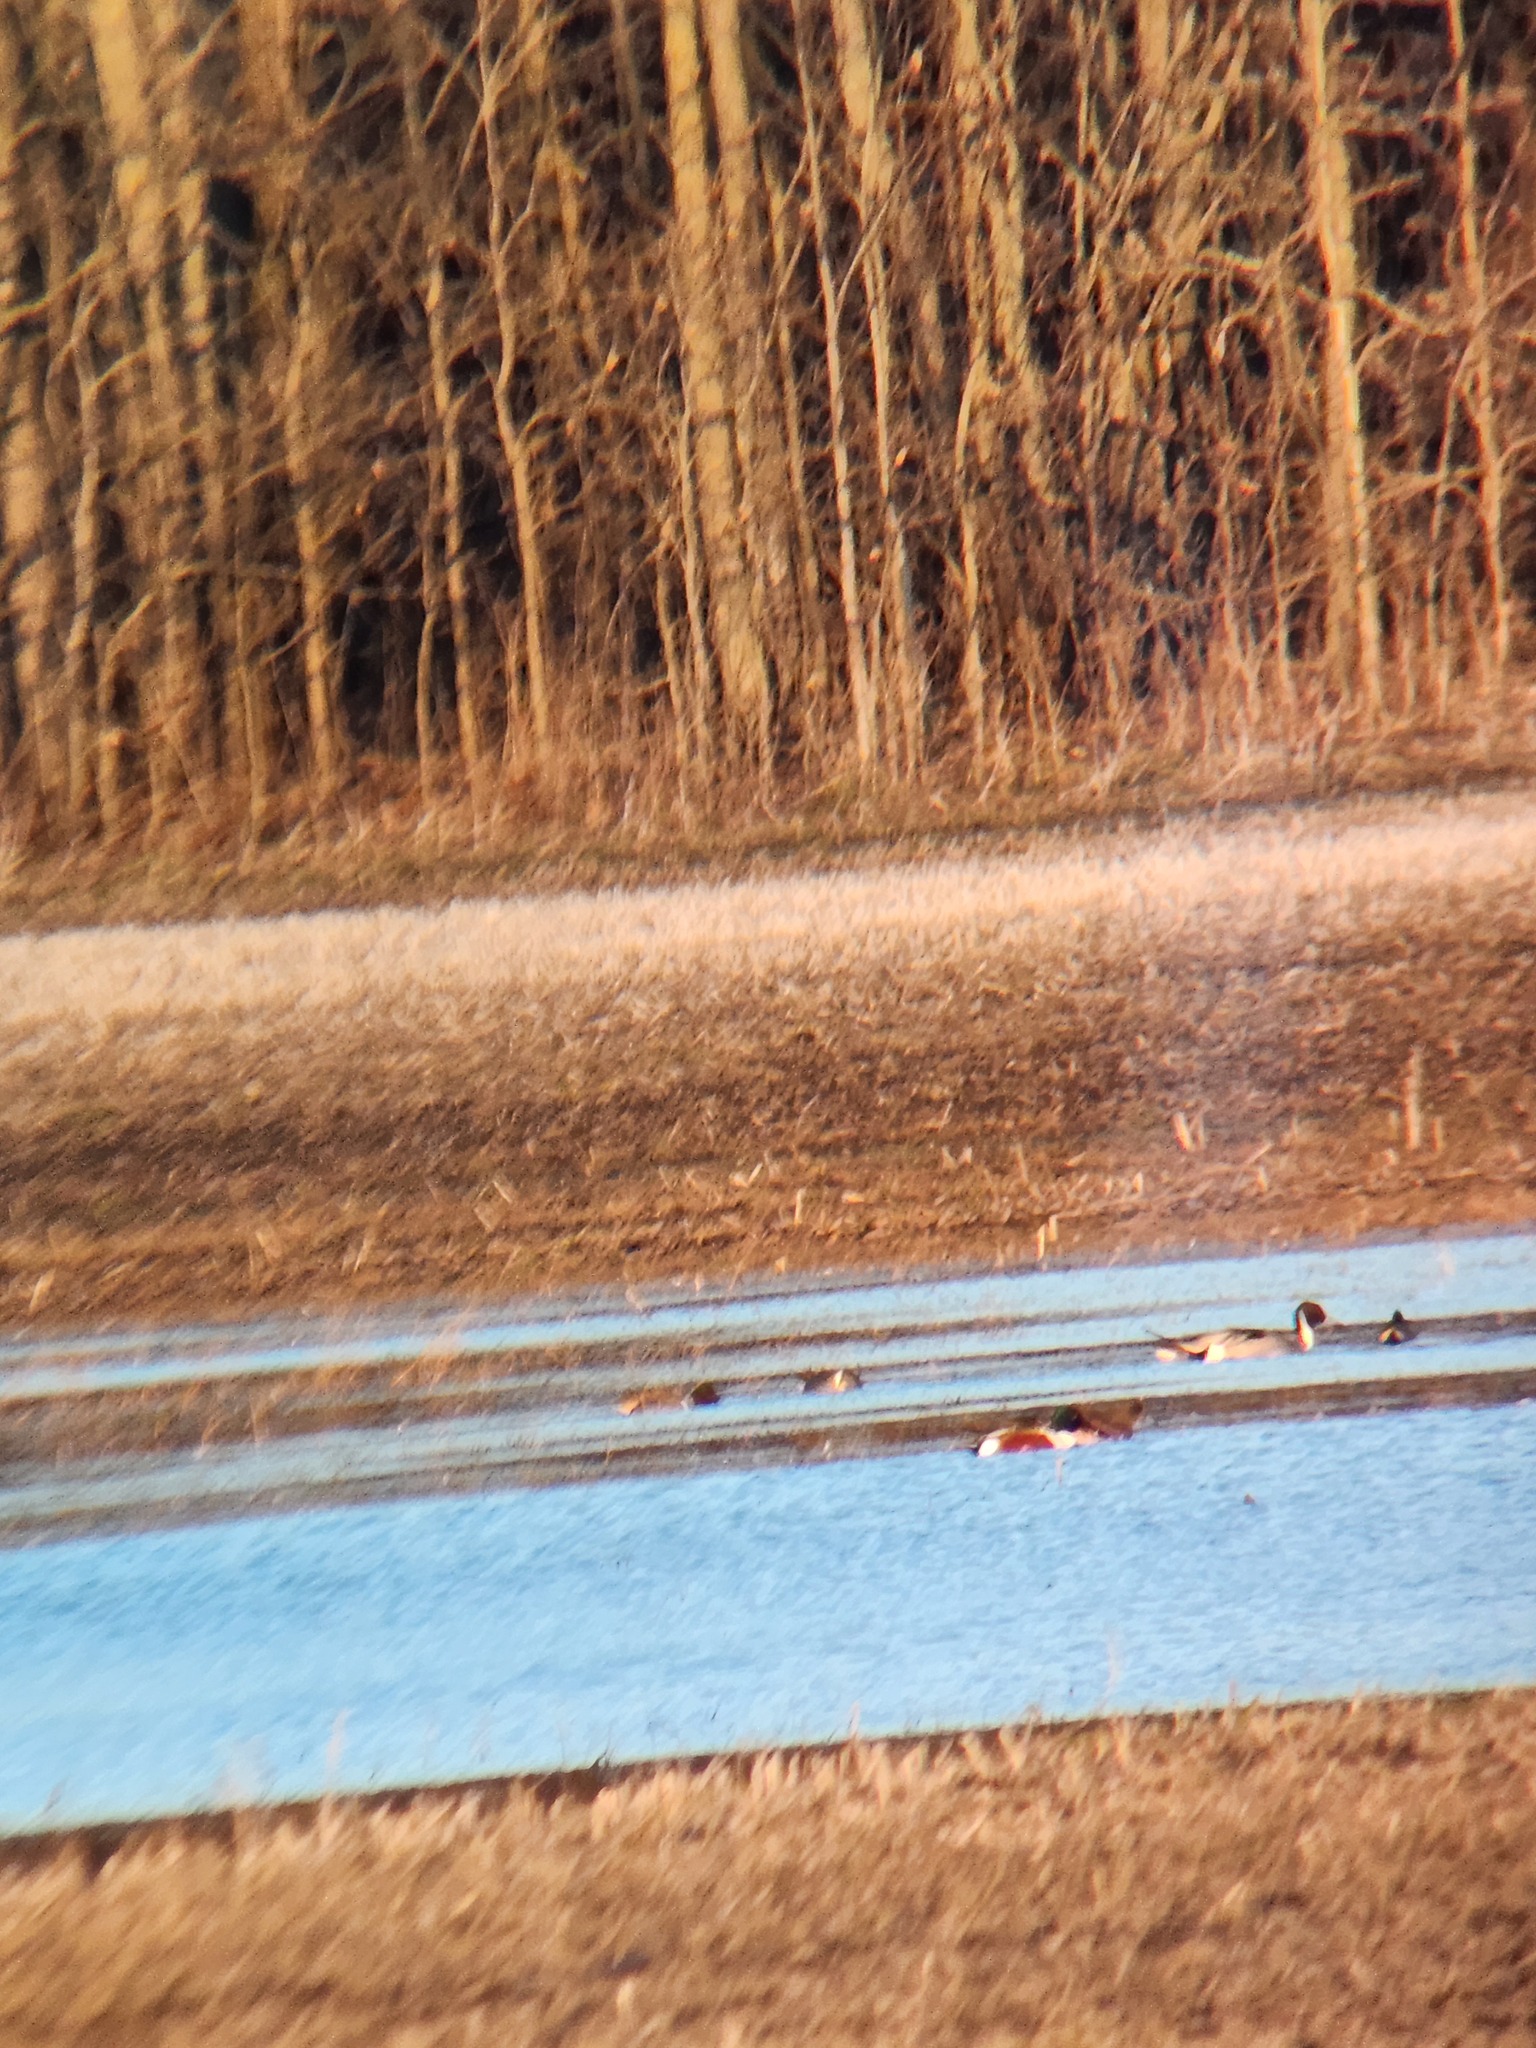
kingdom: Animalia
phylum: Chordata
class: Aves
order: Anseriformes
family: Anatidae
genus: Spatula
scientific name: Spatula clypeata
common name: Northern shoveler
